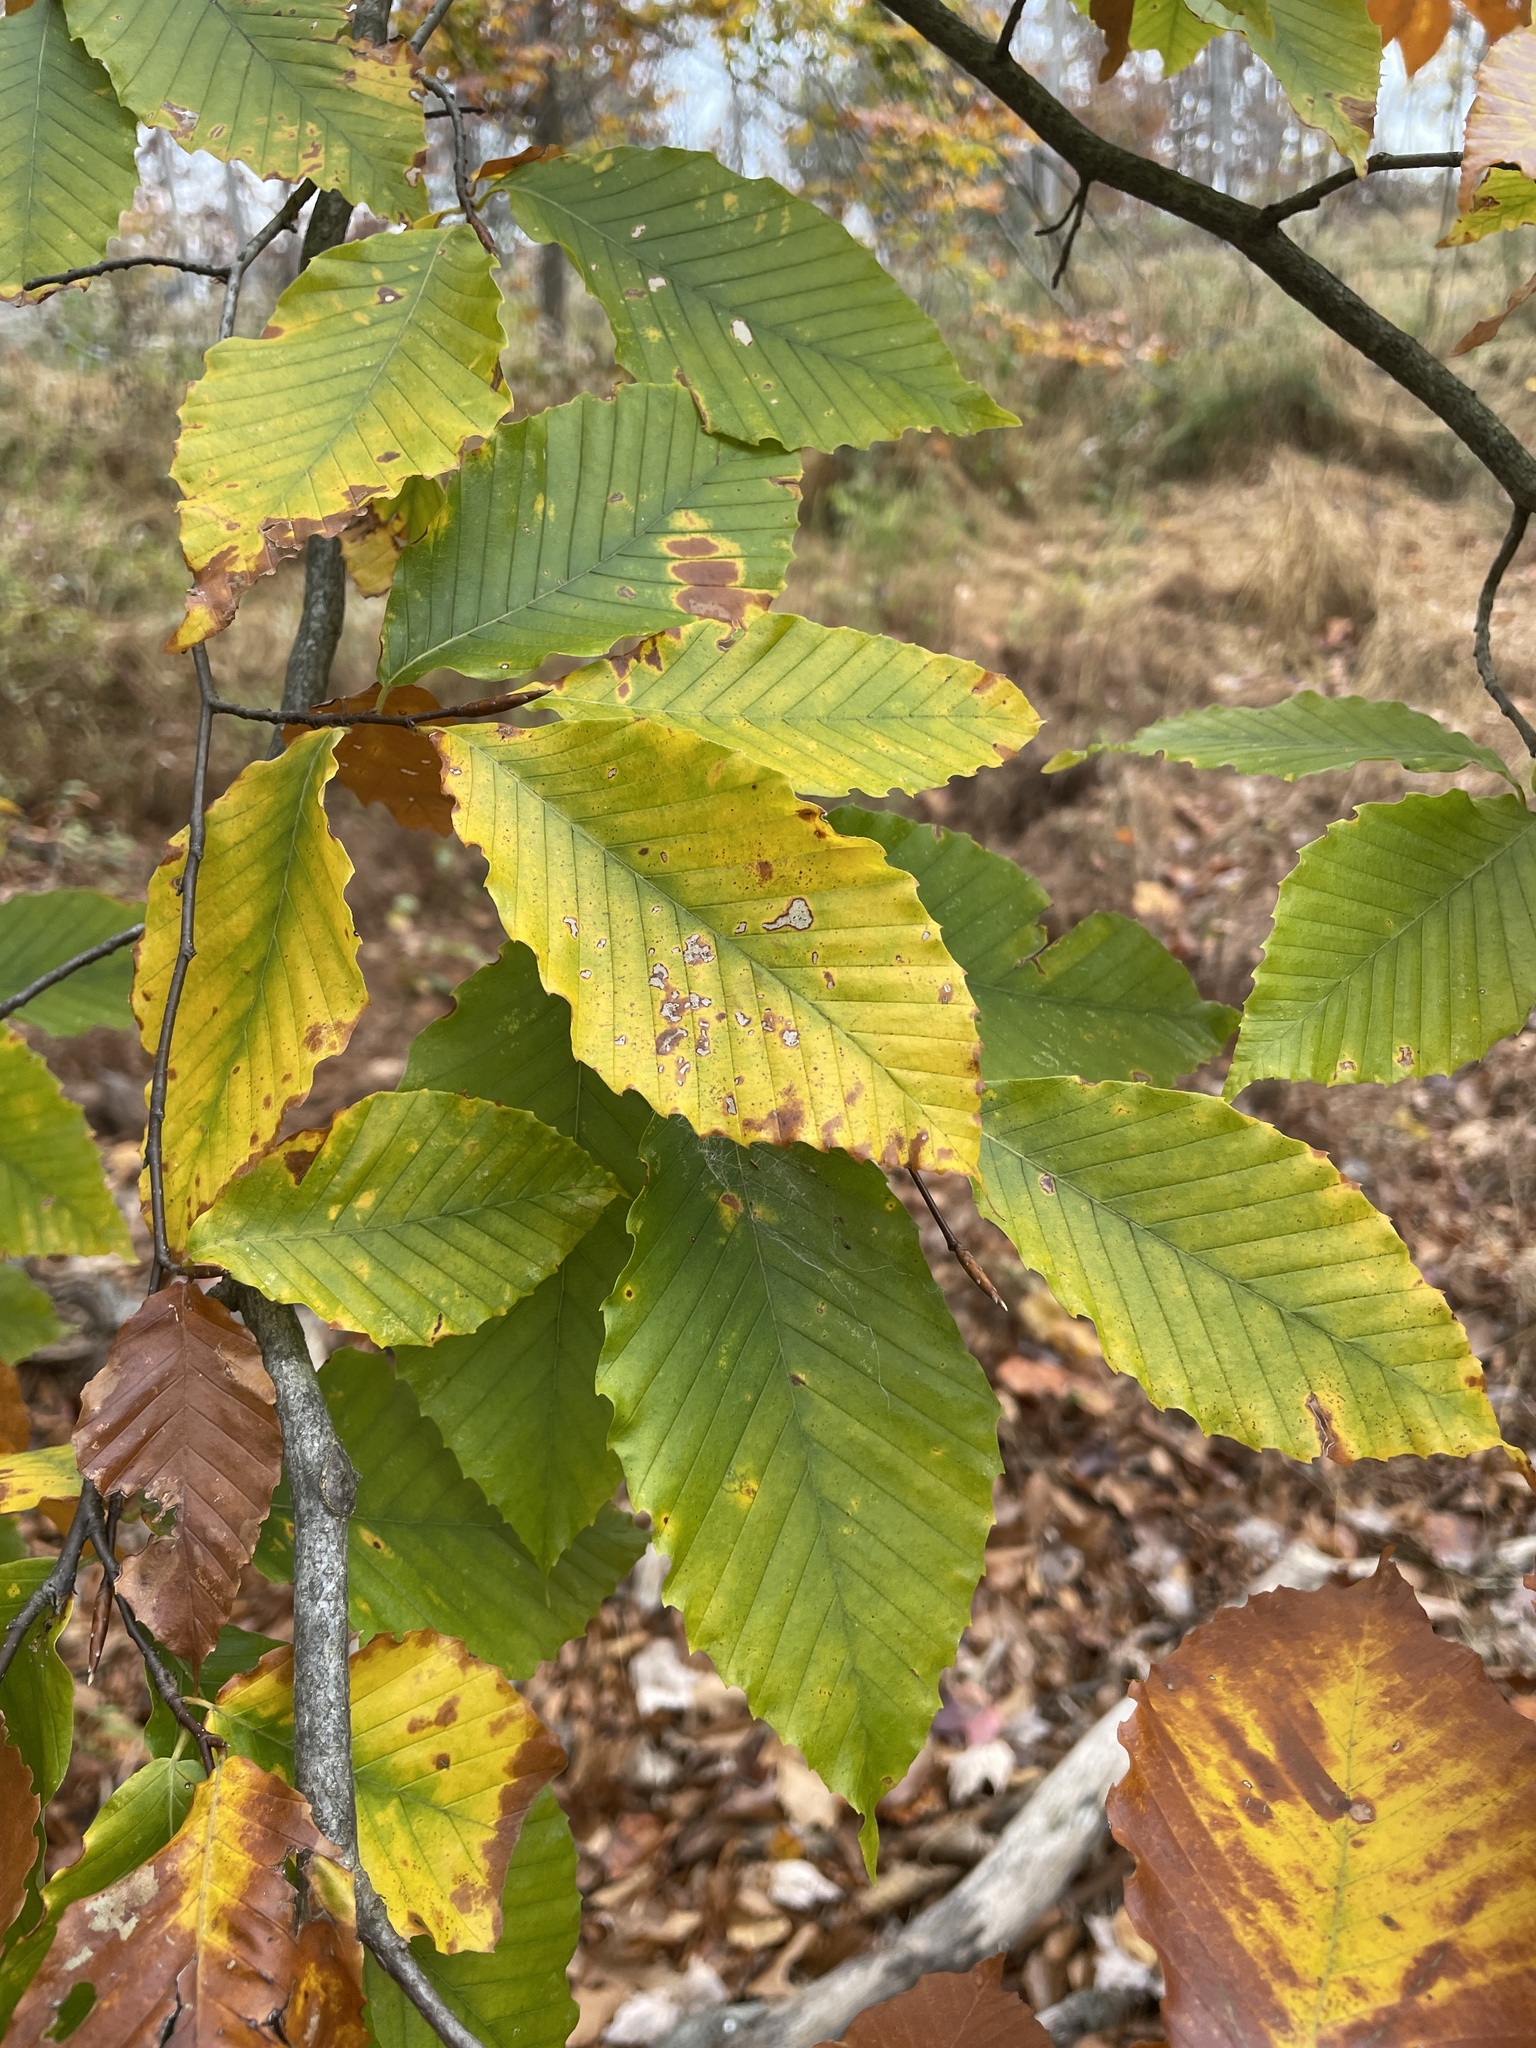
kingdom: Plantae
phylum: Tracheophyta
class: Magnoliopsida
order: Fagales
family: Fagaceae
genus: Fagus
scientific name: Fagus grandifolia
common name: American beech
